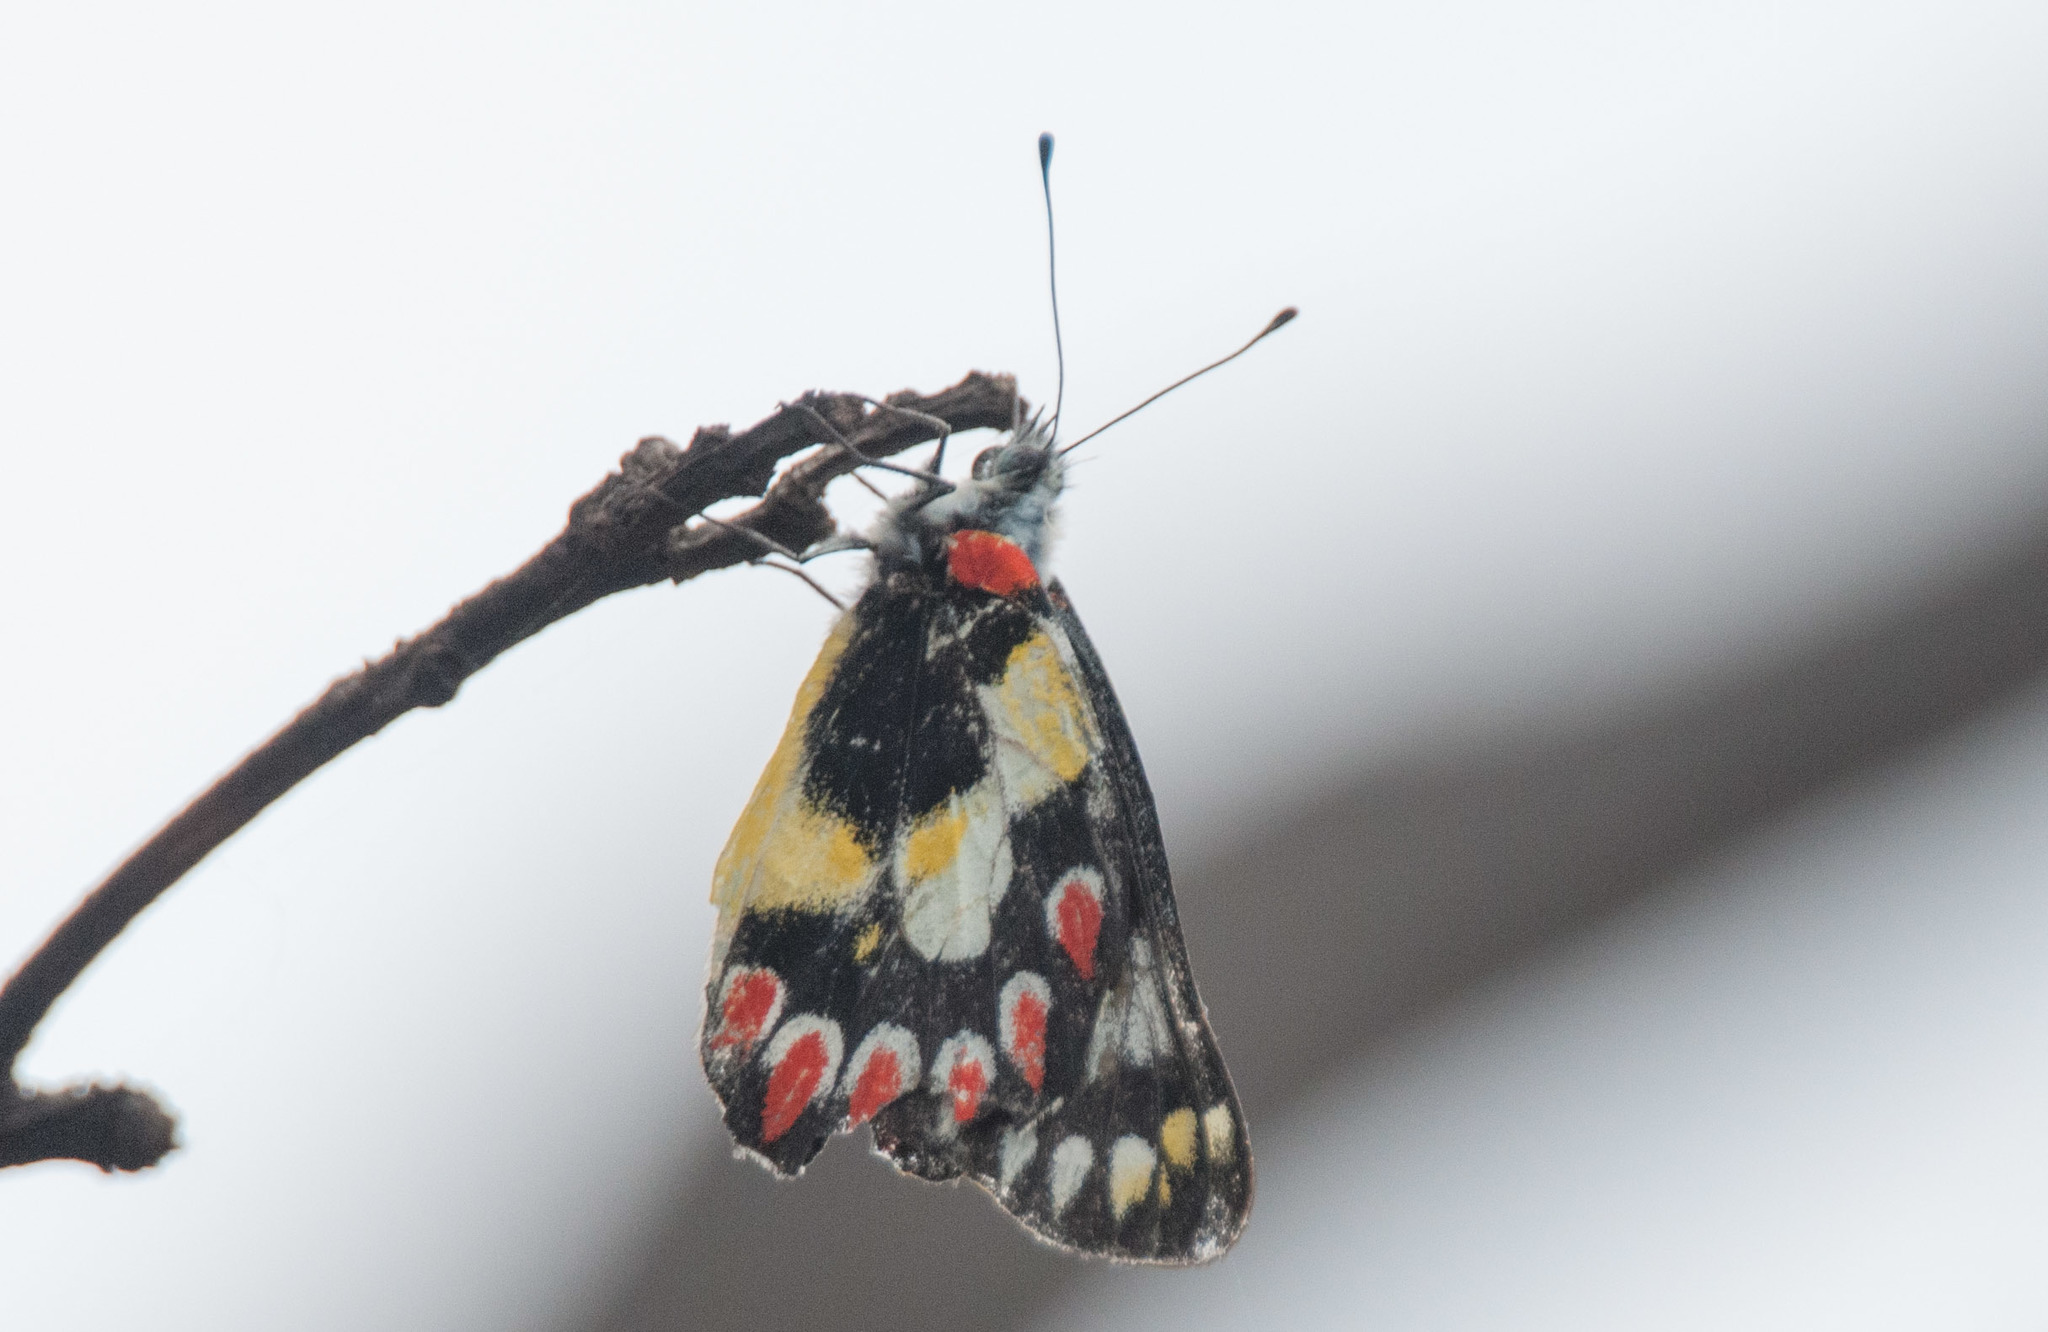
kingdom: Animalia
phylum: Arthropoda
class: Insecta
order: Lepidoptera
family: Pieridae
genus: Delias
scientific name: Delias aganippe
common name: Red-spotted jezebel
